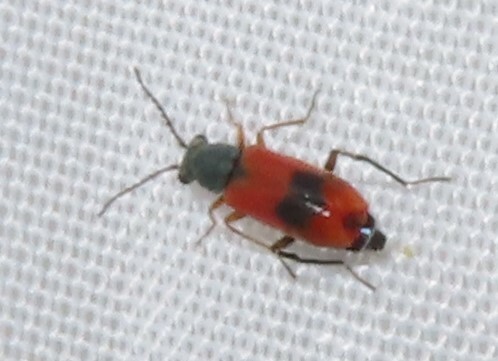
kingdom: Animalia
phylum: Arthropoda
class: Insecta
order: Coleoptera
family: Melyridae
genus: Anthocomus
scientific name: Anthocomus equestris
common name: Black-banded soft-winged flower beetle
